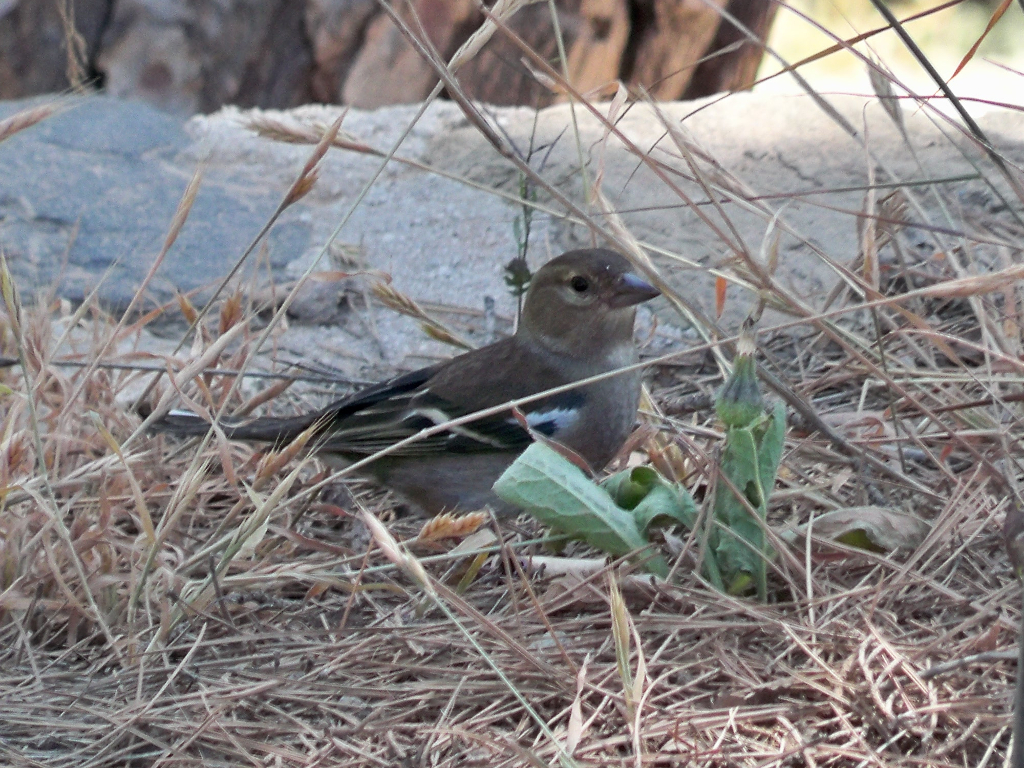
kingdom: Animalia
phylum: Chordata
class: Aves
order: Passeriformes
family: Fringillidae
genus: Fringilla
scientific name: Fringilla coelebs
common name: Common chaffinch
